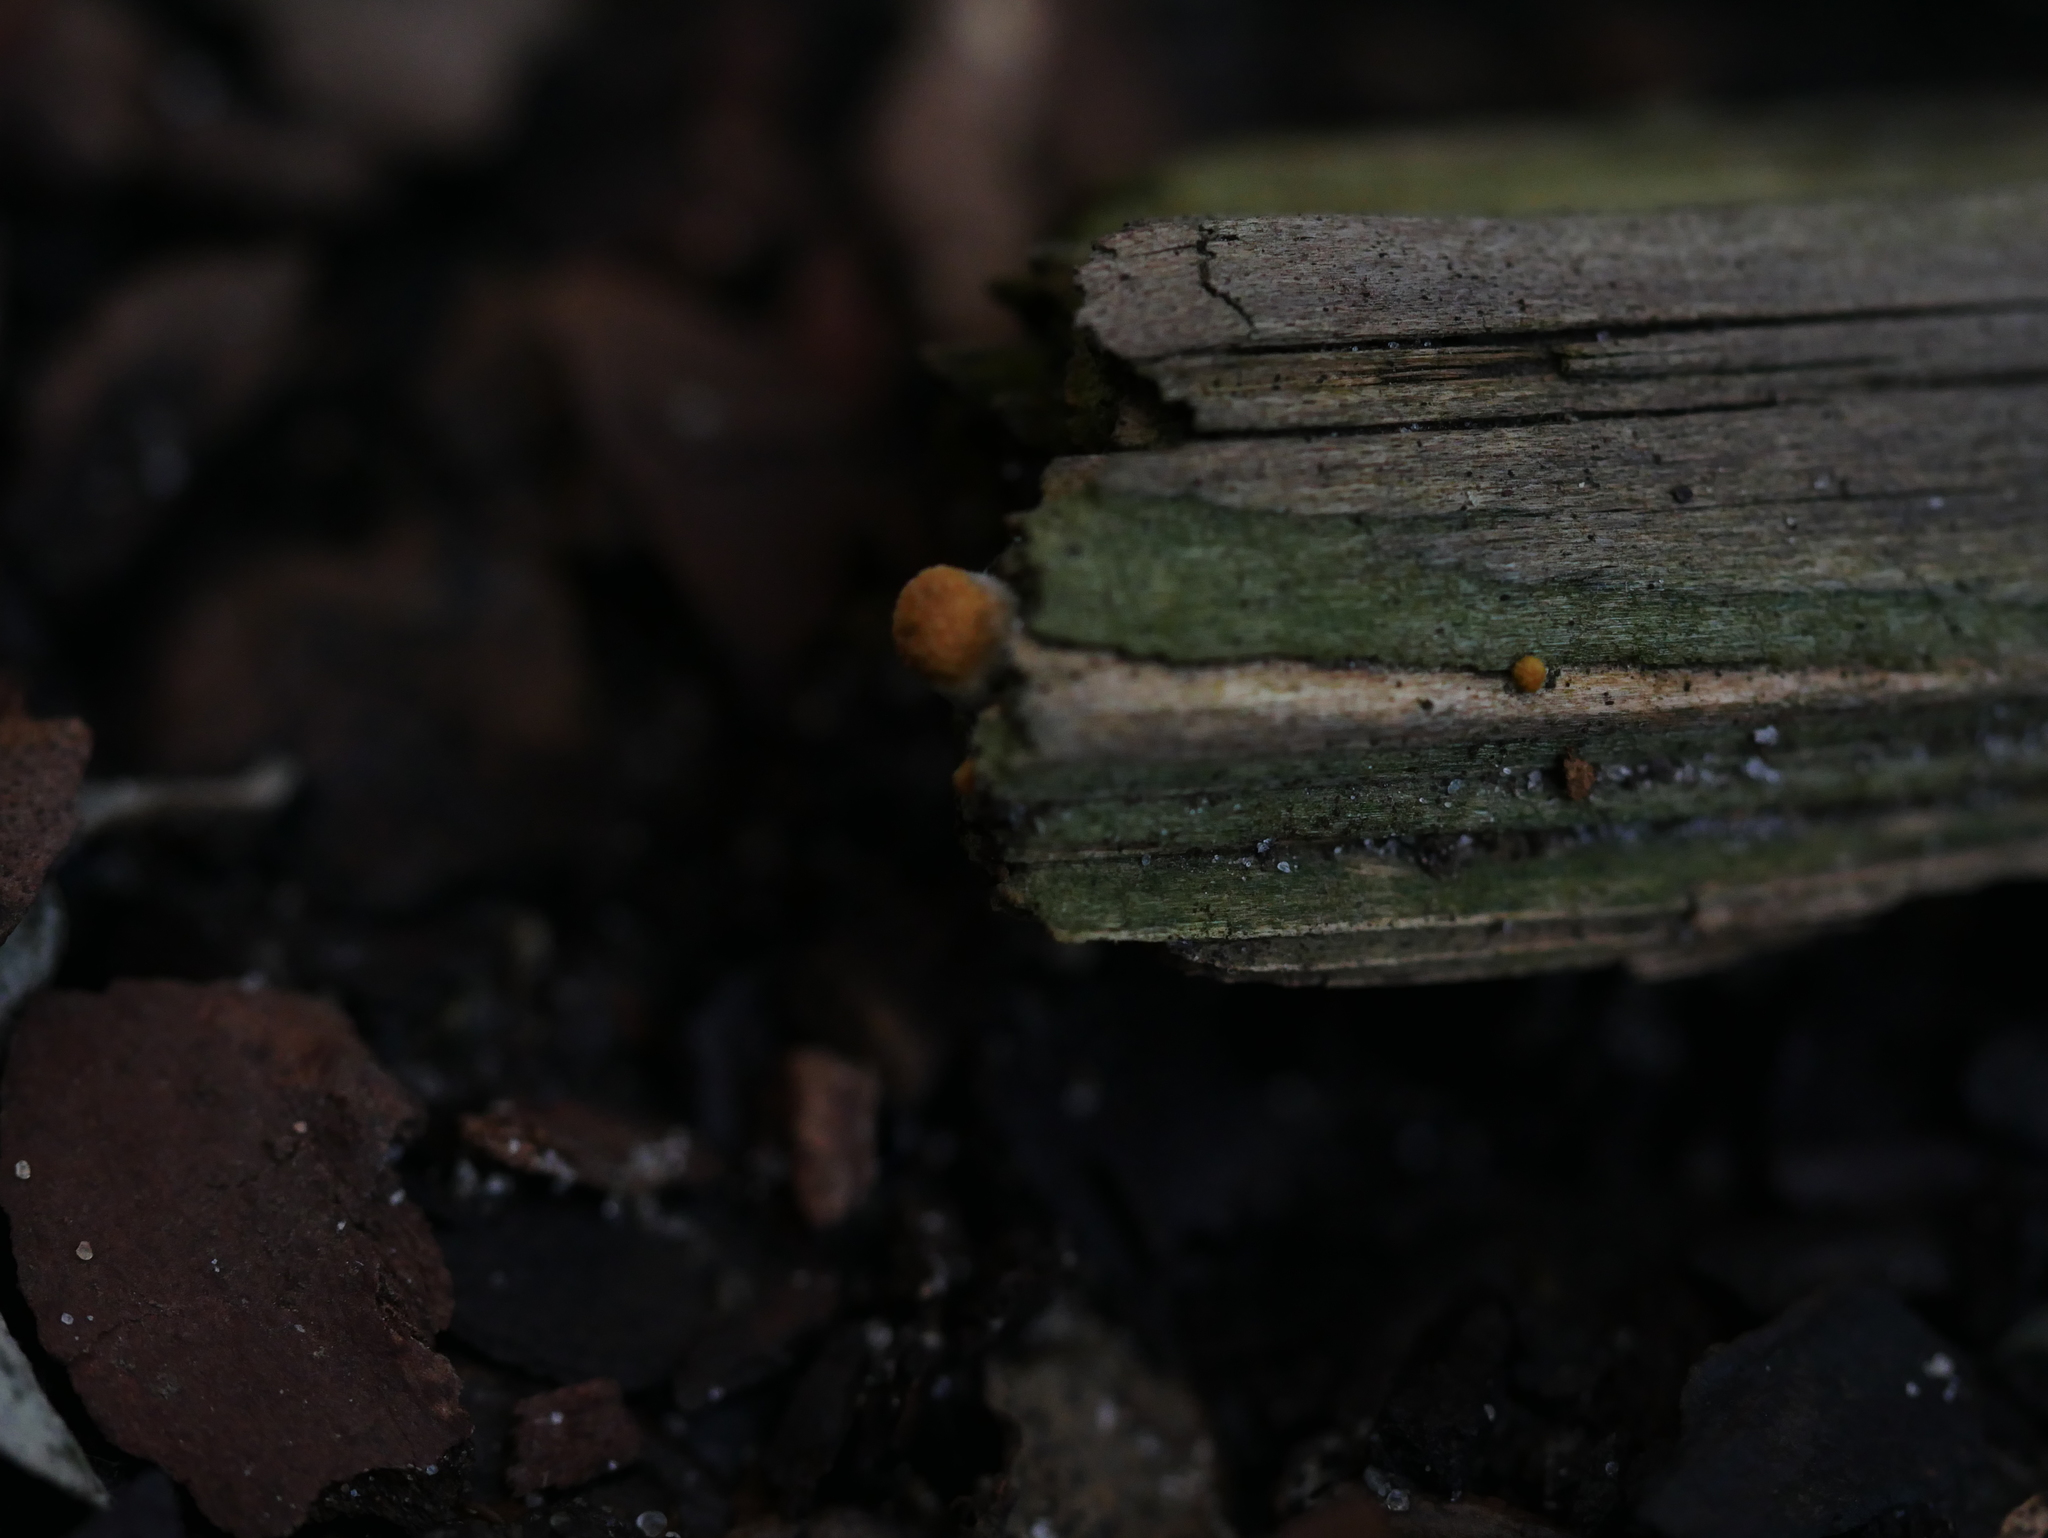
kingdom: Fungi
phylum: Basidiomycota
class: Agaricomycetes
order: Agaricales
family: Nidulariaceae
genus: Crucibulum
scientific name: Crucibulum laeve
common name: Common bird's nest
